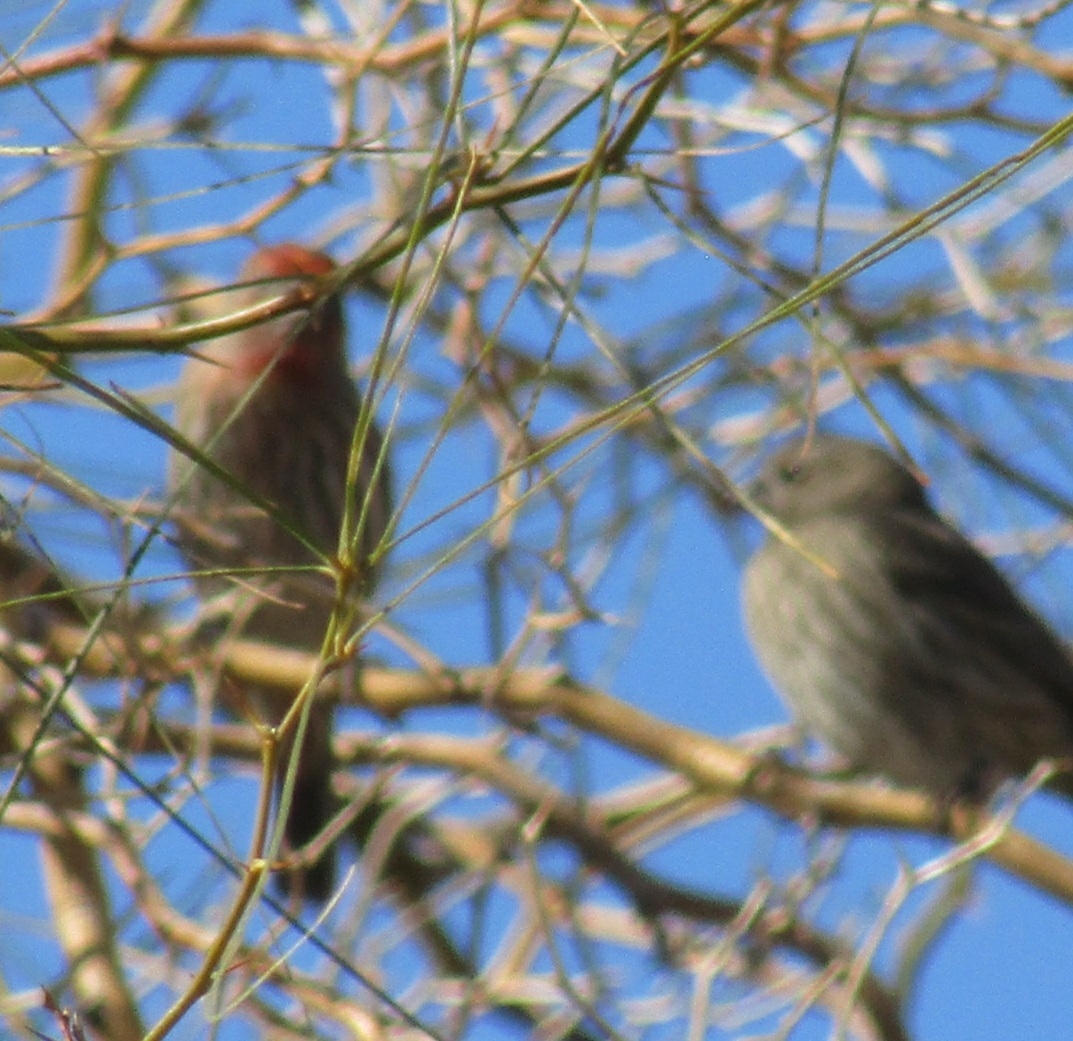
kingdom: Animalia
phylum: Chordata
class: Aves
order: Passeriformes
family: Fringillidae
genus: Haemorhous
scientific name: Haemorhous mexicanus
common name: House finch
